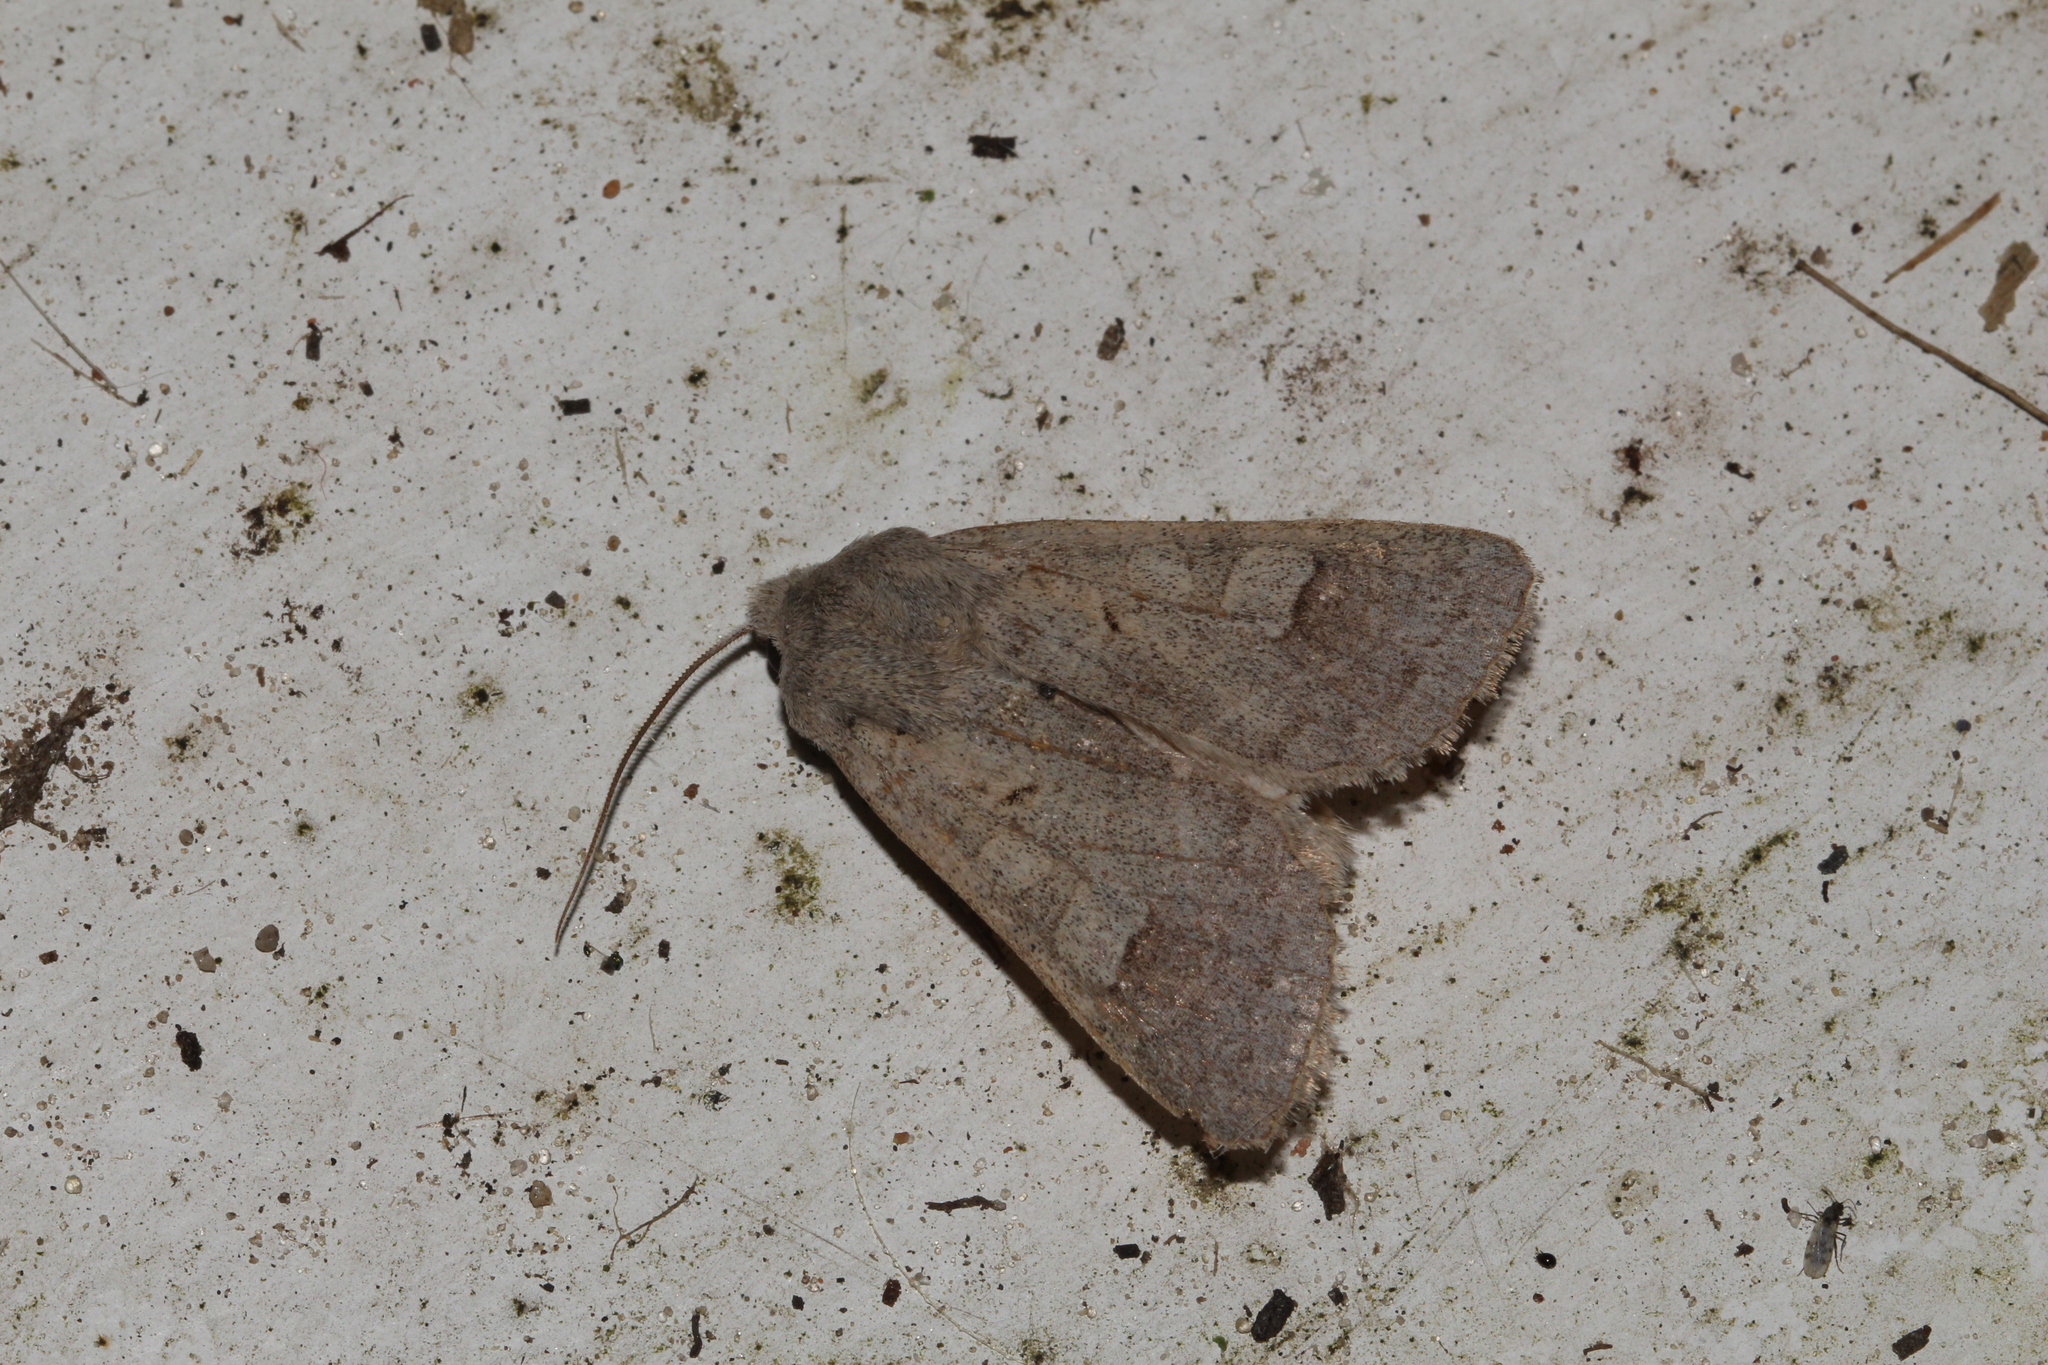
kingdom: Animalia
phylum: Arthropoda
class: Insecta
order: Lepidoptera
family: Noctuidae
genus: Ammoconia
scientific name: Ammoconia caecimacula
